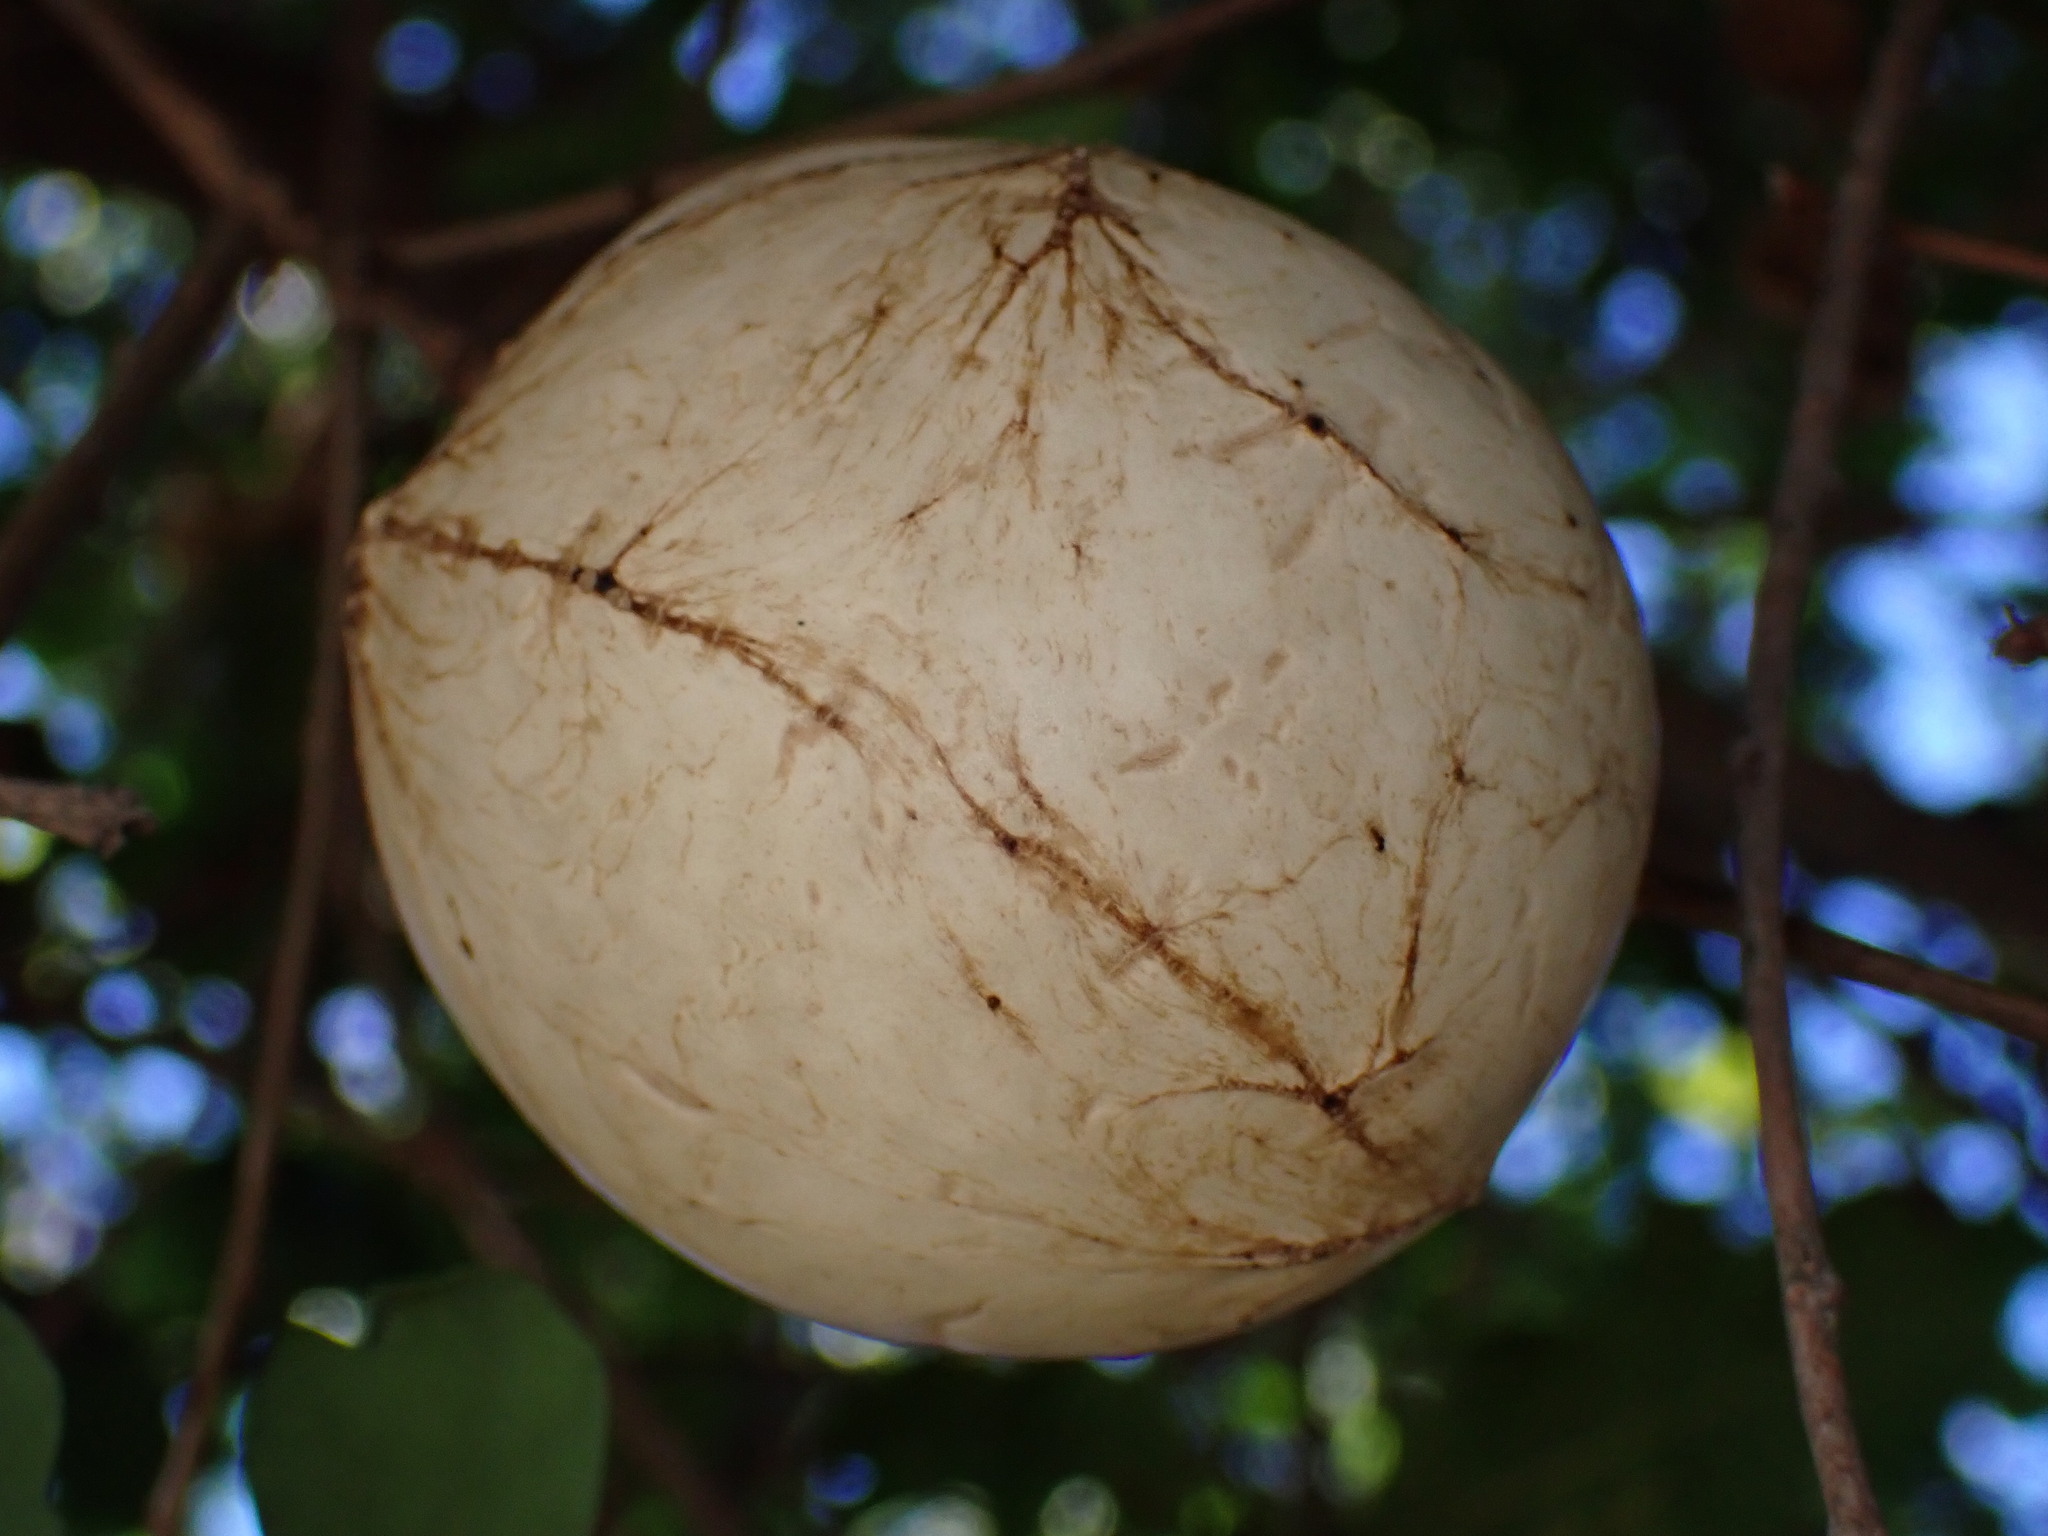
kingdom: Animalia
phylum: Arthropoda
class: Insecta
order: Hymenoptera
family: Cynipidae
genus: Andricus
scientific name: Andricus quercuscalifornicus
